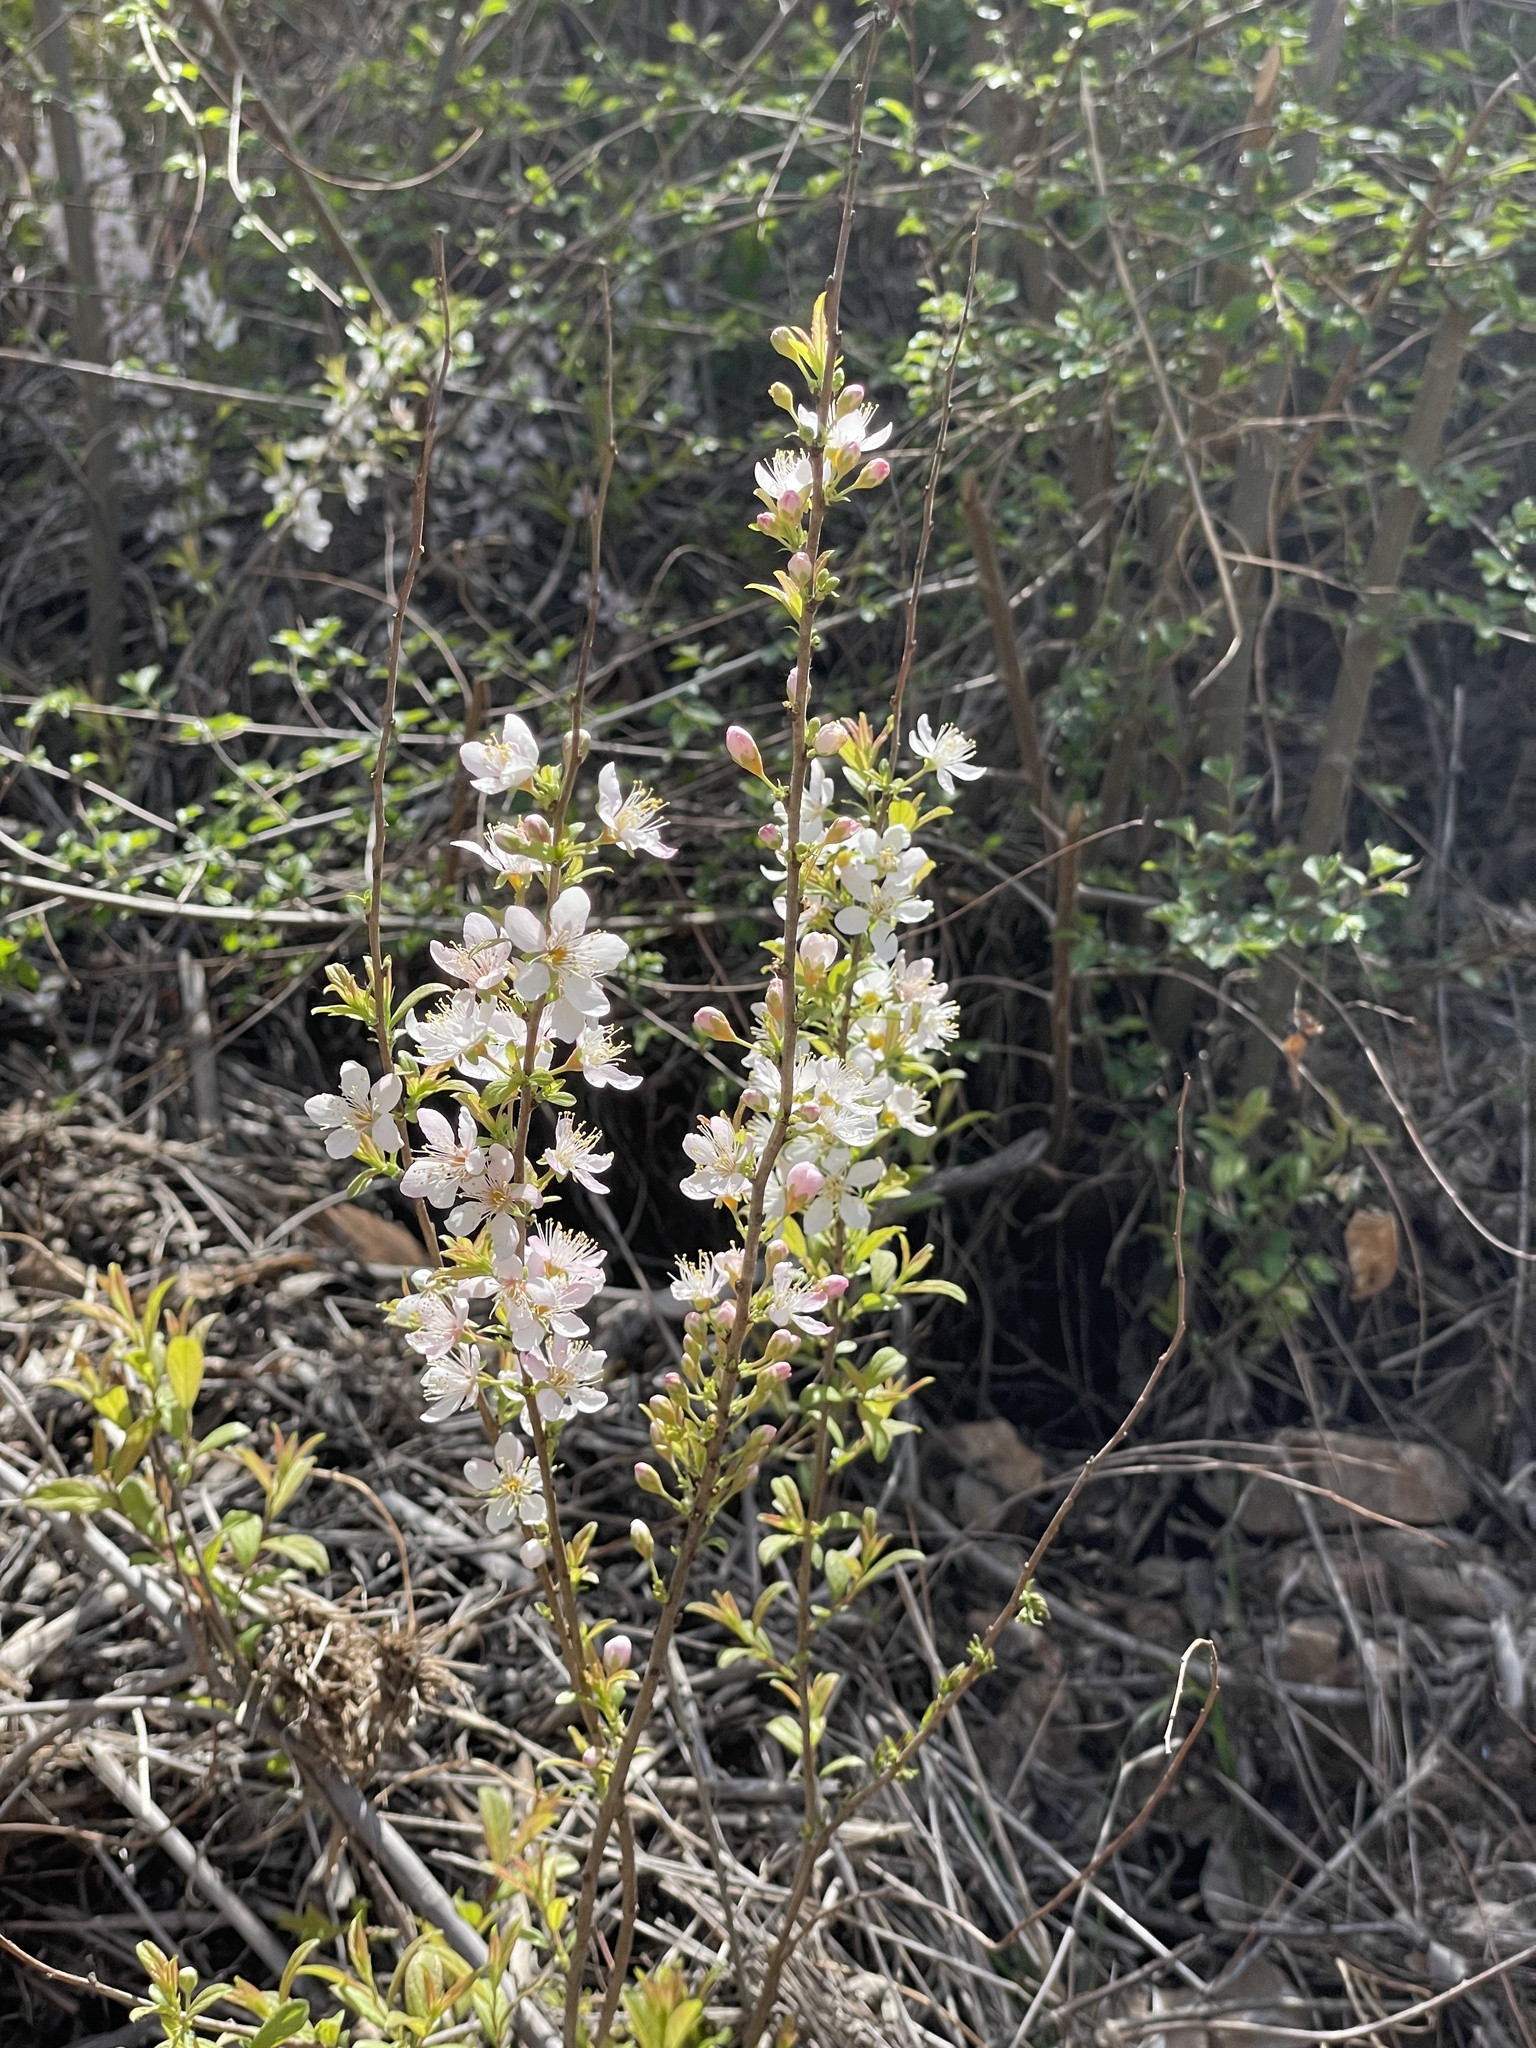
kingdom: Plantae
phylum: Tracheophyta
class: Magnoliopsida
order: Rosales
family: Rosaceae
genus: Prunus
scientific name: Prunus humilis
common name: Humble bush cherry
